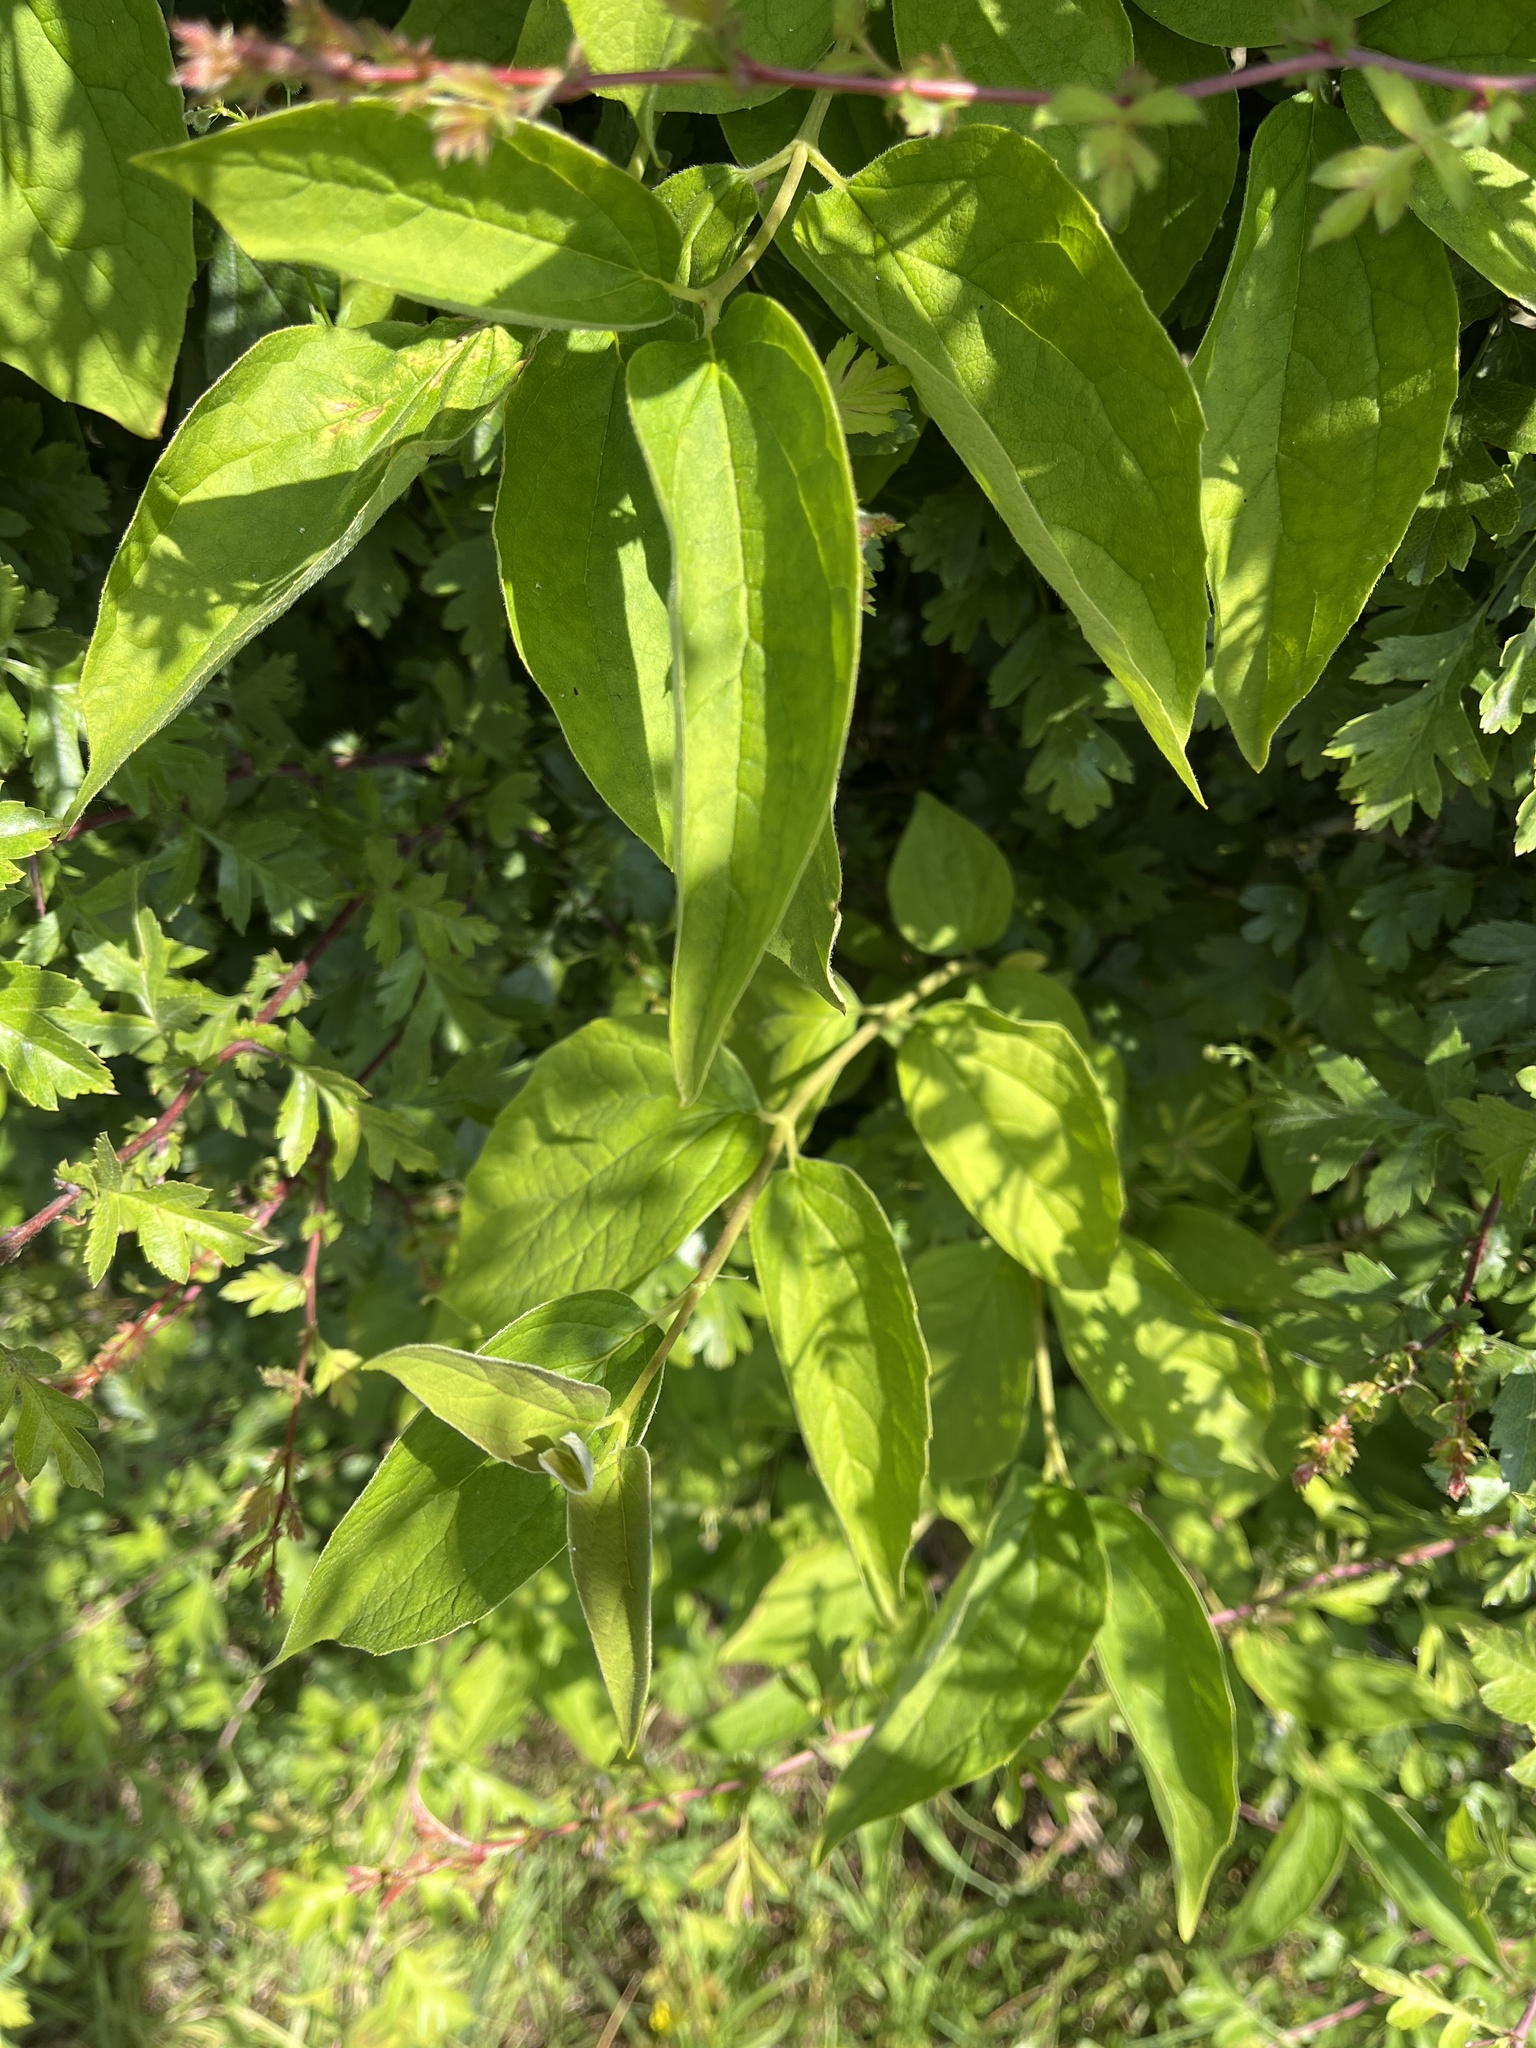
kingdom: Plantae
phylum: Tracheophyta
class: Magnoliopsida
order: Cornales
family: Hydrangeaceae
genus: Philadelphus
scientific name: Philadelphus coronarius
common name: Mock orange
